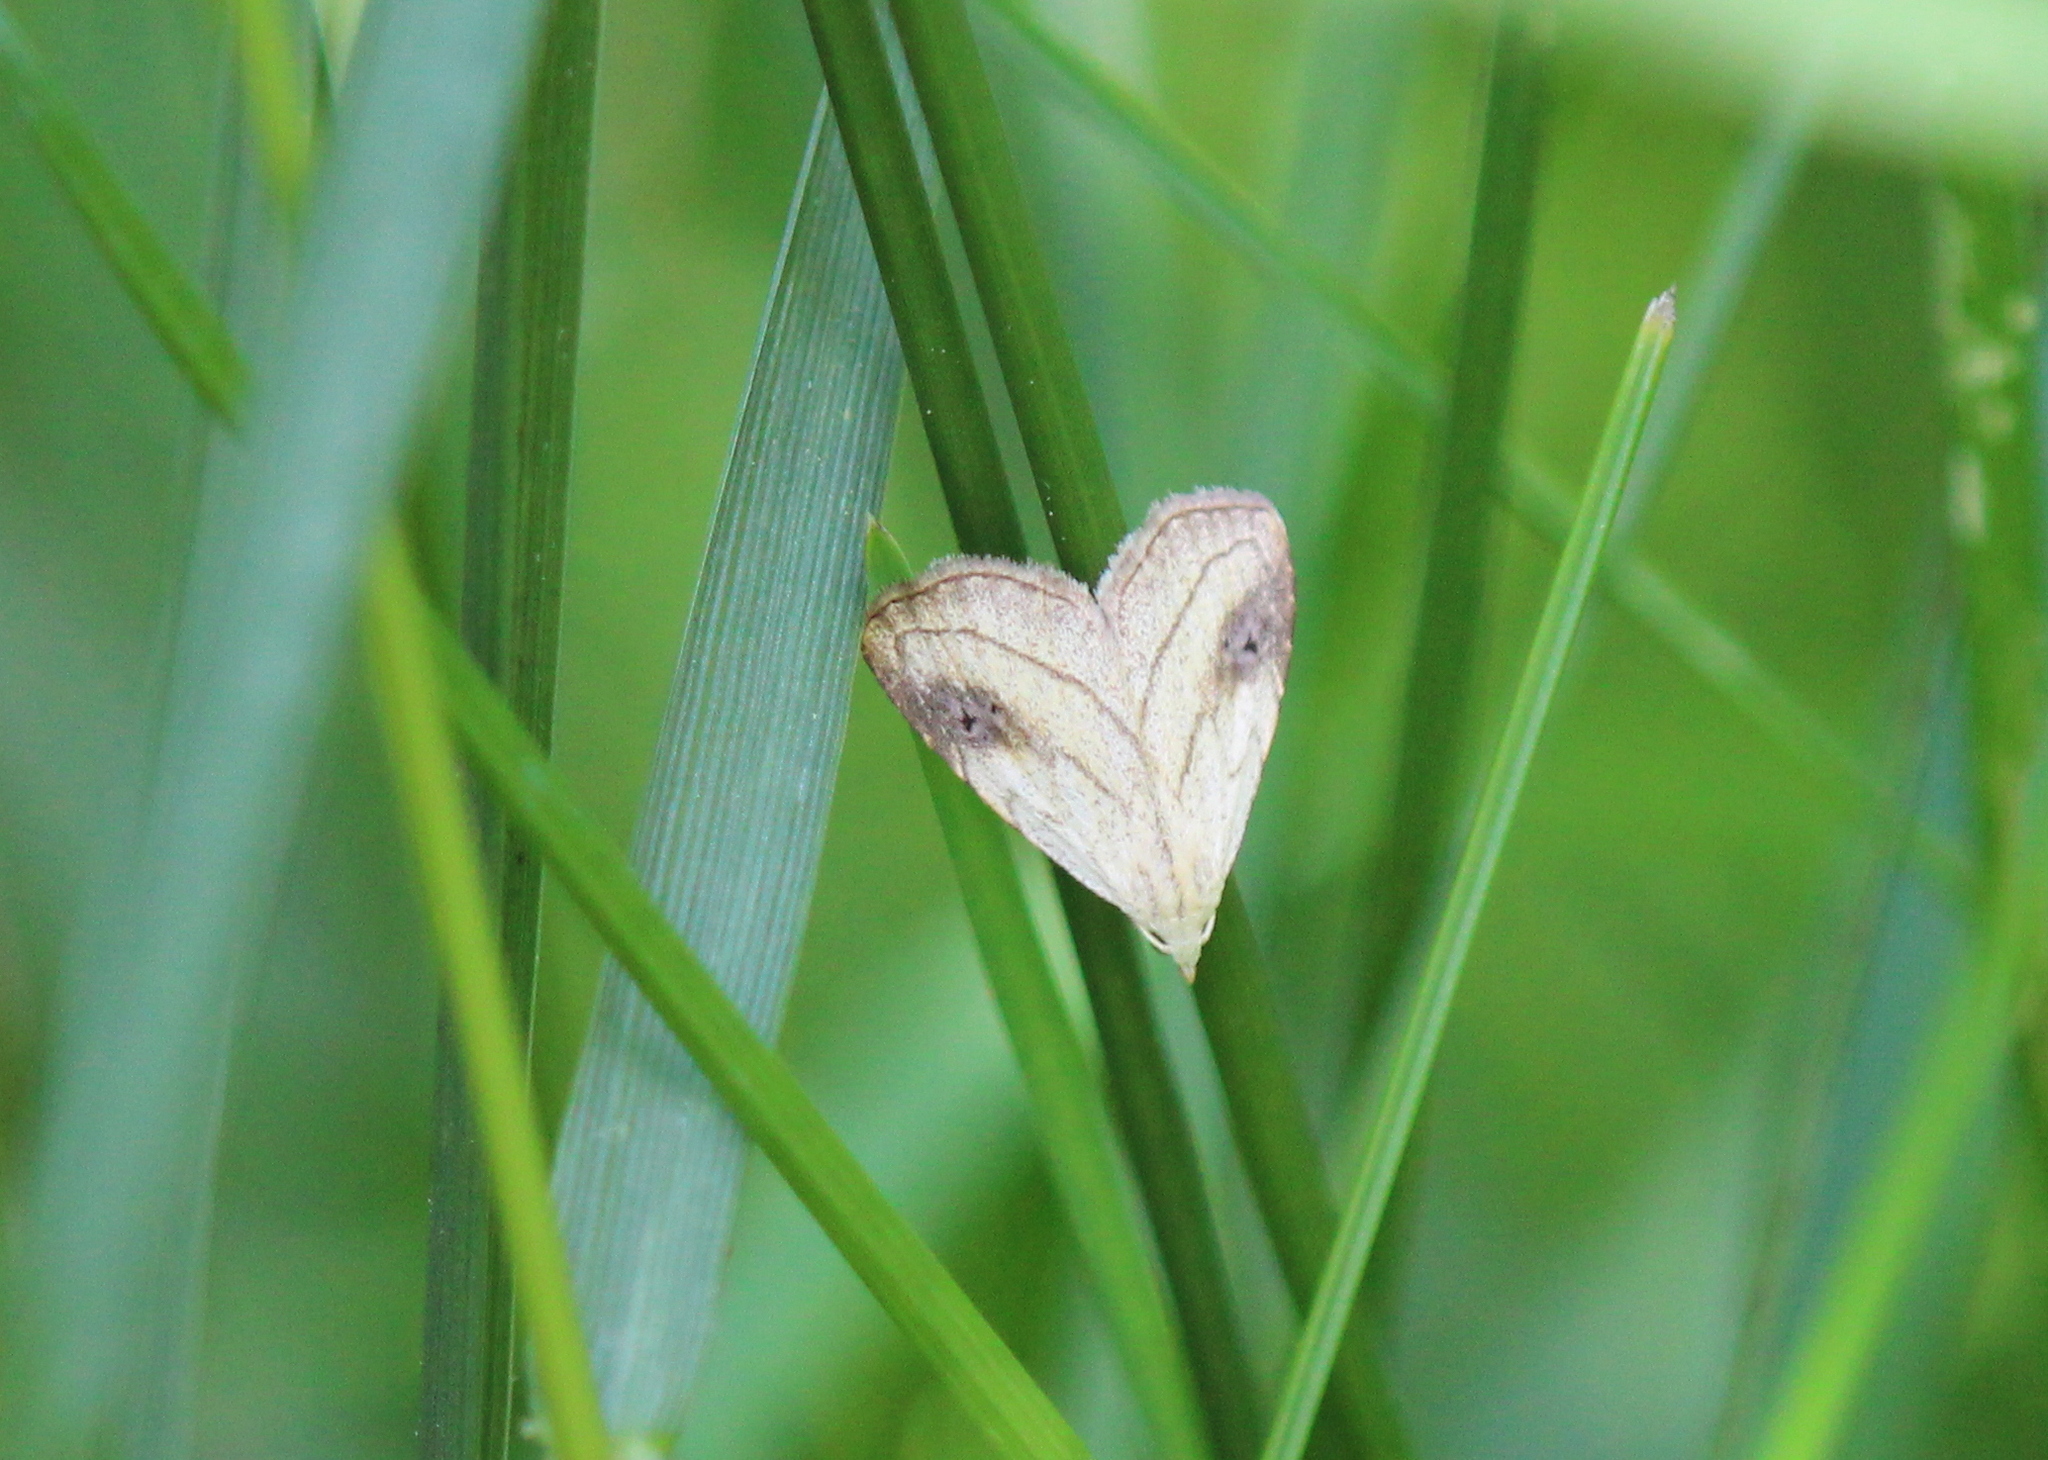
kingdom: Animalia
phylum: Arthropoda
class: Insecta
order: Lepidoptera
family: Erebidae
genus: Rivula
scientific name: Rivula propinqualis
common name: Spotted grass moth
